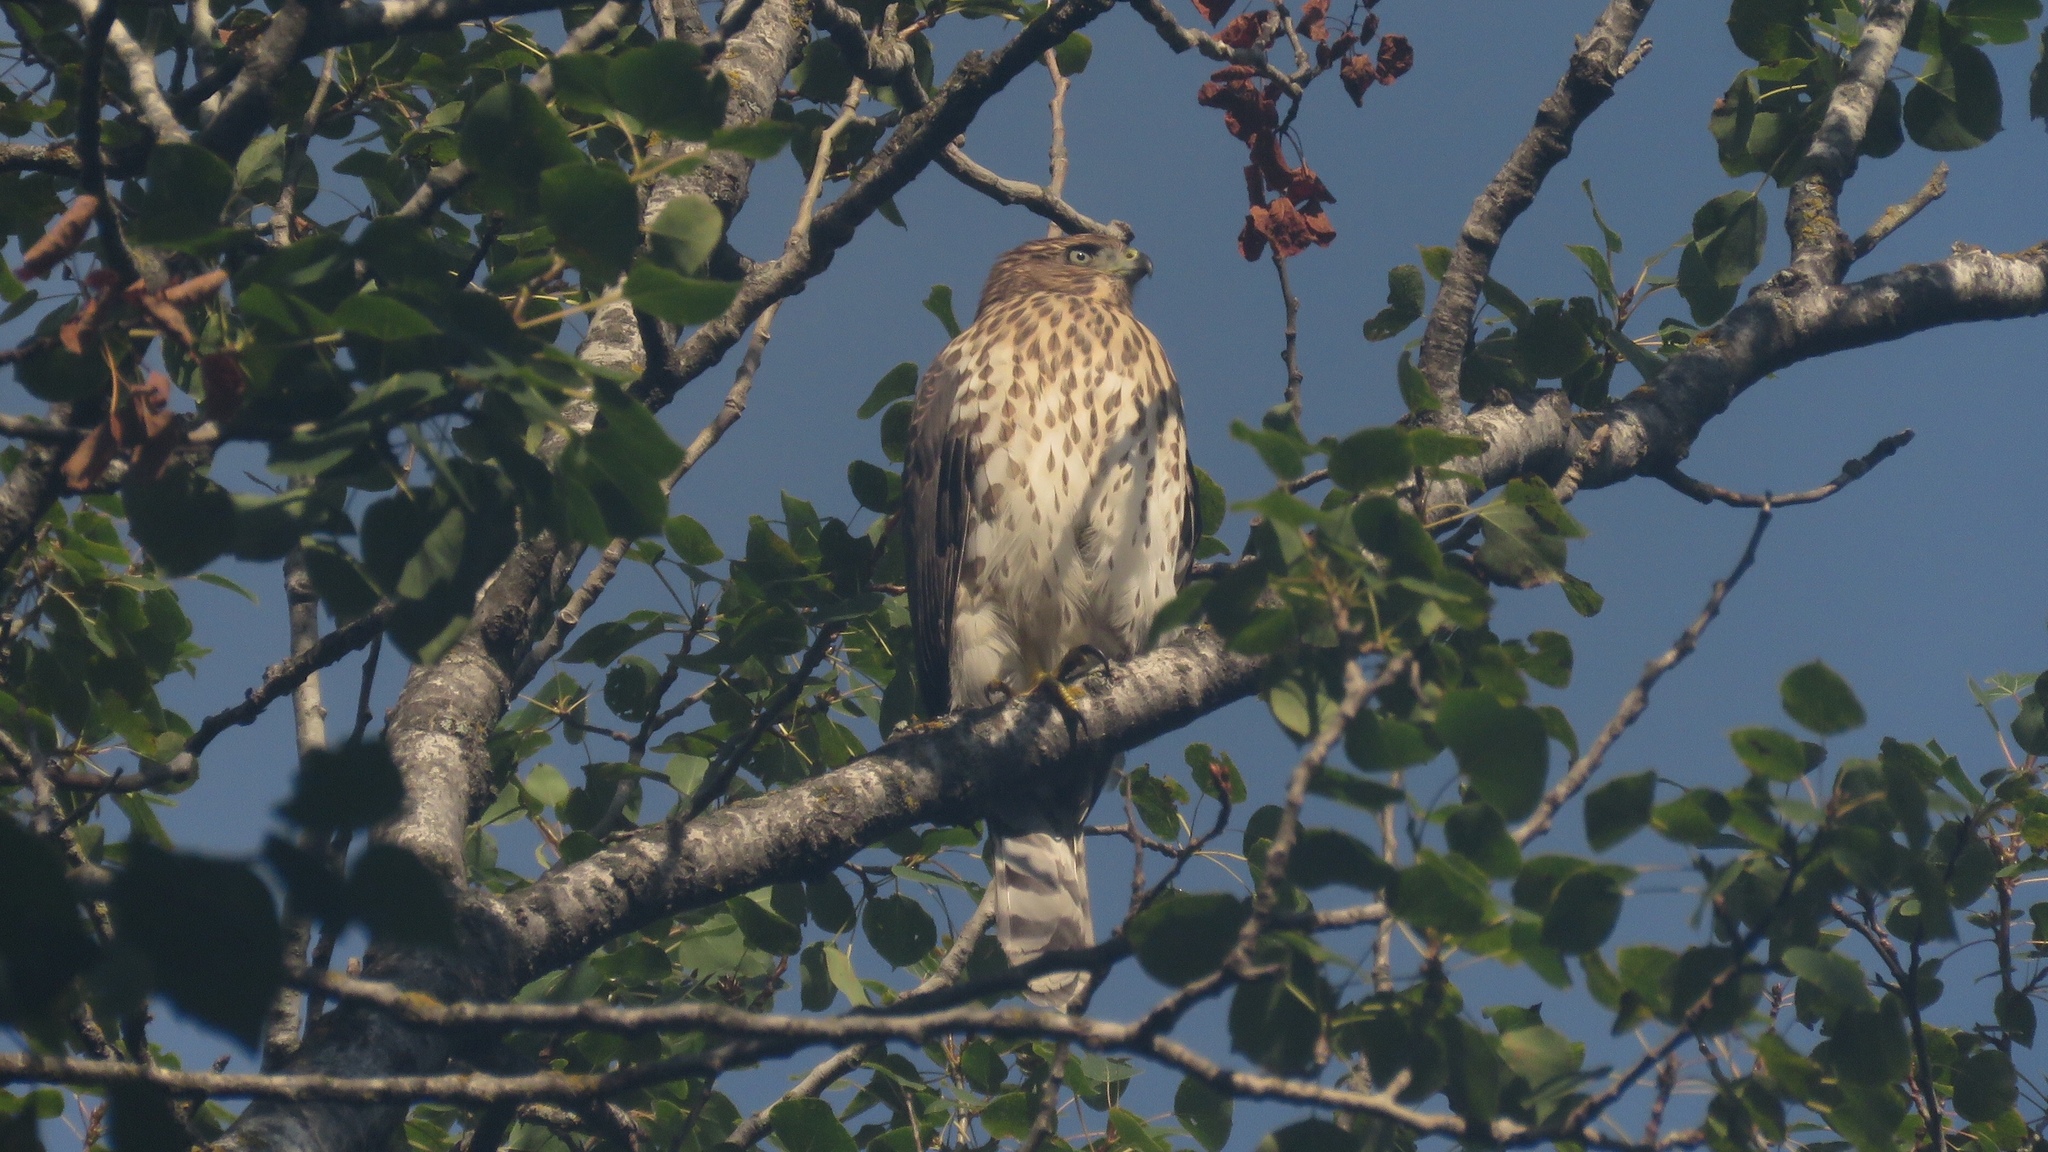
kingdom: Animalia
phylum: Chordata
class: Aves
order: Accipitriformes
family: Accipitridae
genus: Accipiter
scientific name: Accipiter cooperii
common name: Cooper's hawk
